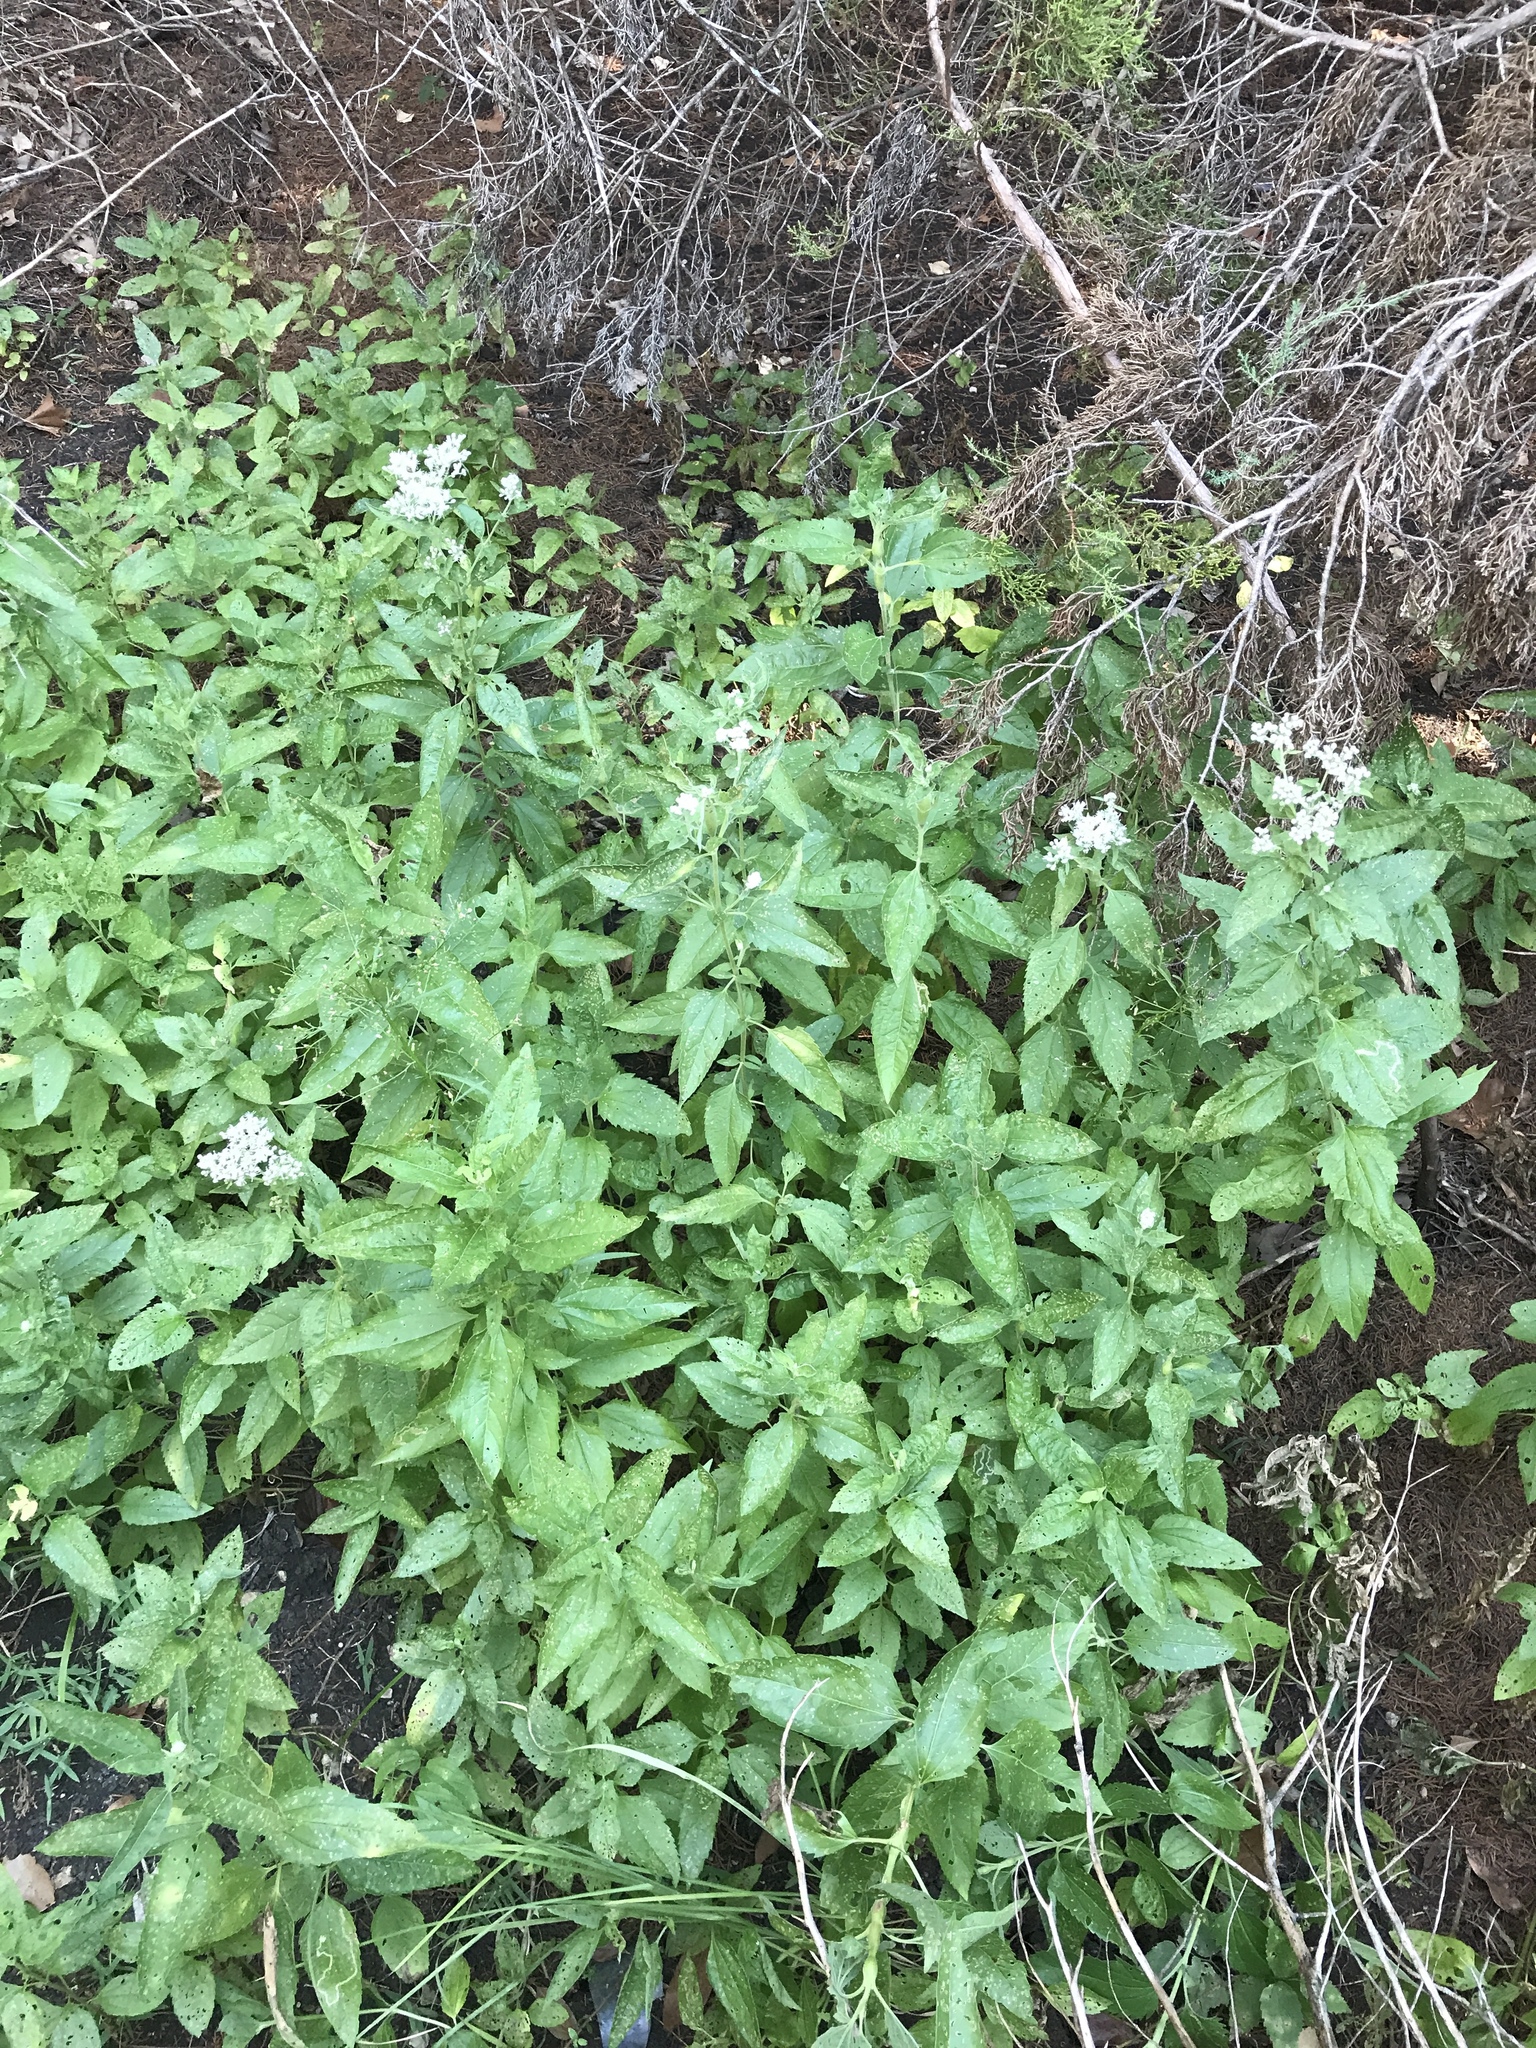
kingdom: Plantae
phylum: Tracheophyta
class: Magnoliopsida
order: Asterales
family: Asteraceae
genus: Eupatorium
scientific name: Eupatorium serotinum
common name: Late boneset
